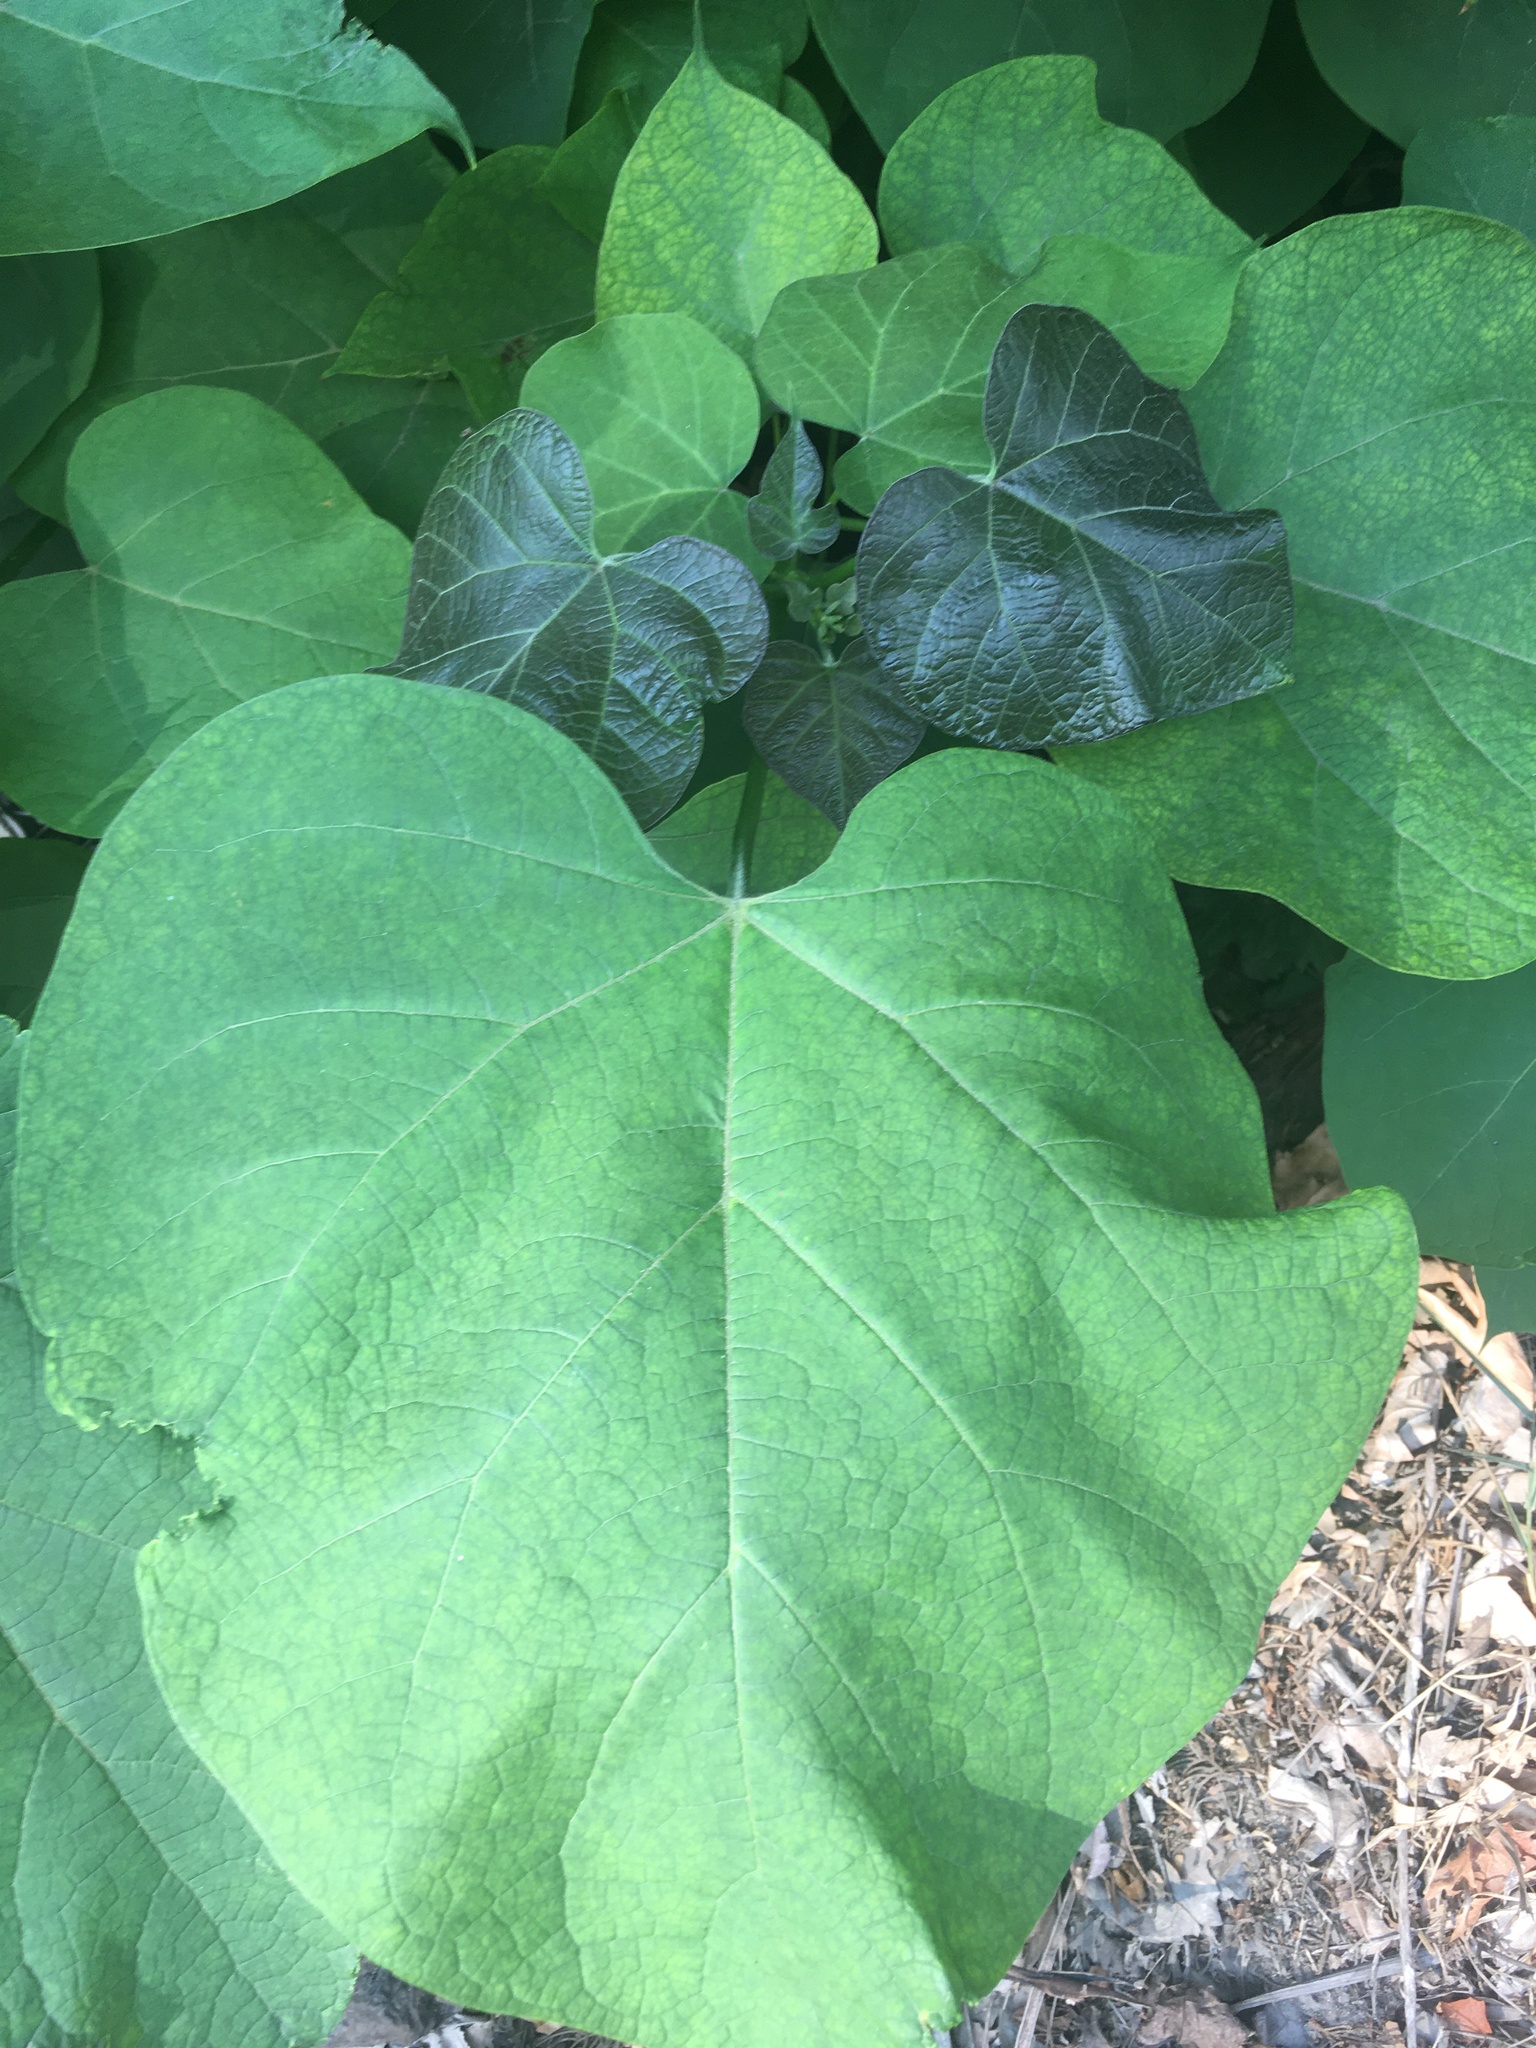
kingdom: Plantae
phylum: Tracheophyta
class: Magnoliopsida
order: Lamiales
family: Paulowniaceae
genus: Paulownia
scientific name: Paulownia tomentosa
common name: Foxglove-tree
